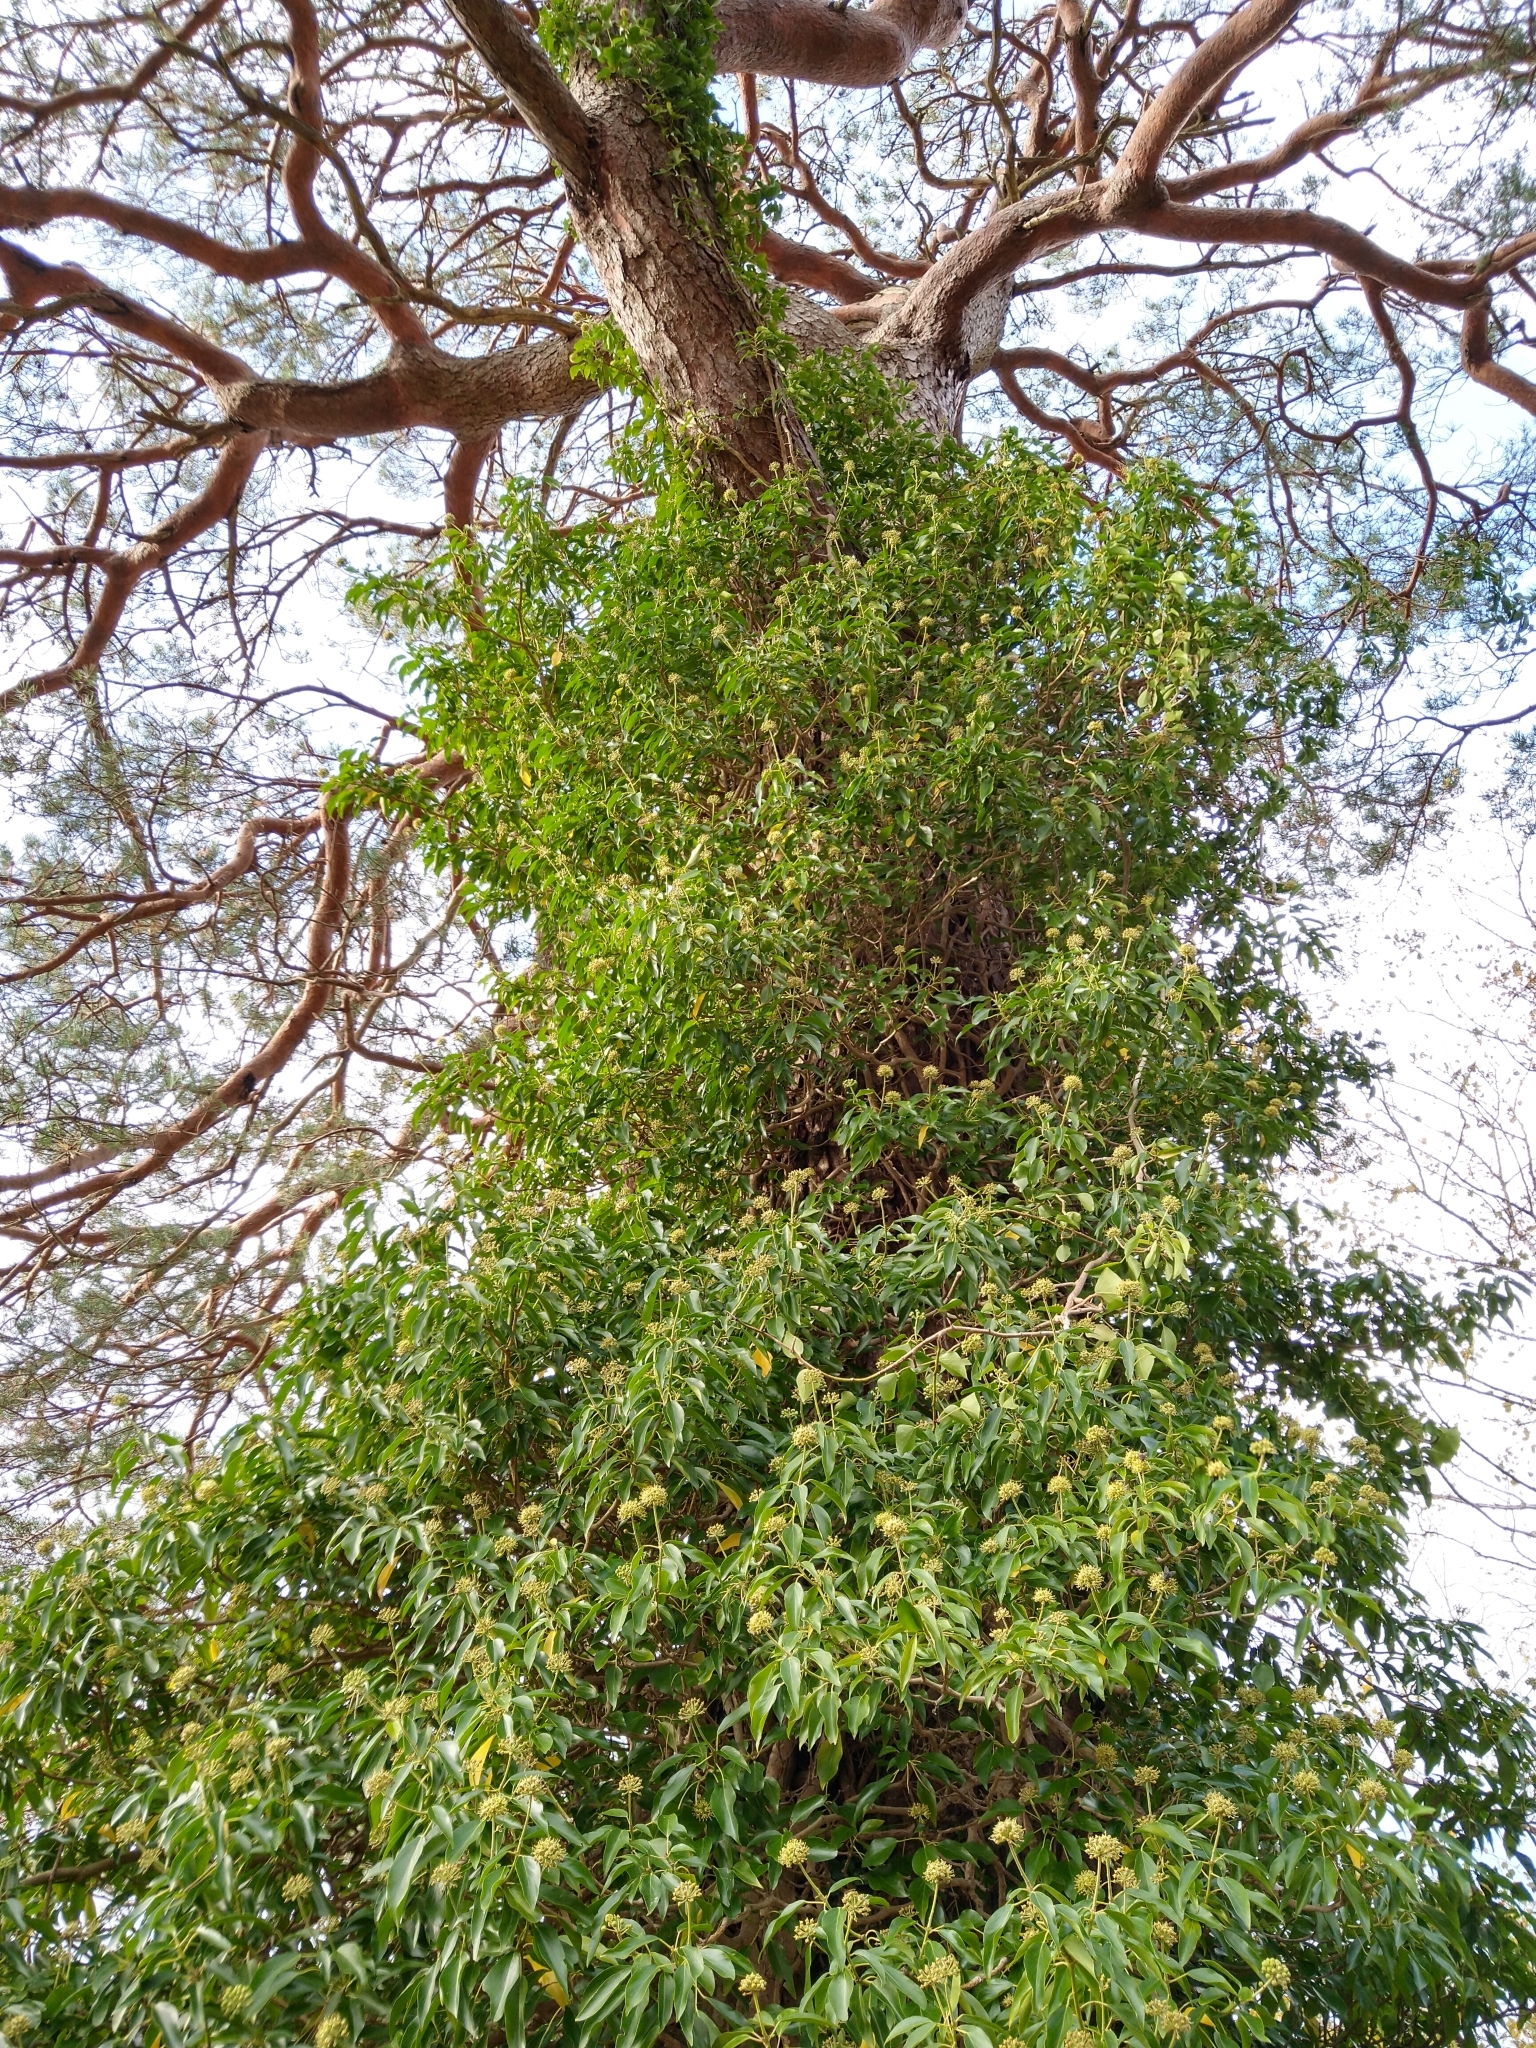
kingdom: Plantae
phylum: Tracheophyta
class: Magnoliopsida
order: Apiales
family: Araliaceae
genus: Hedera
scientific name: Hedera helix
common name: Ivy
